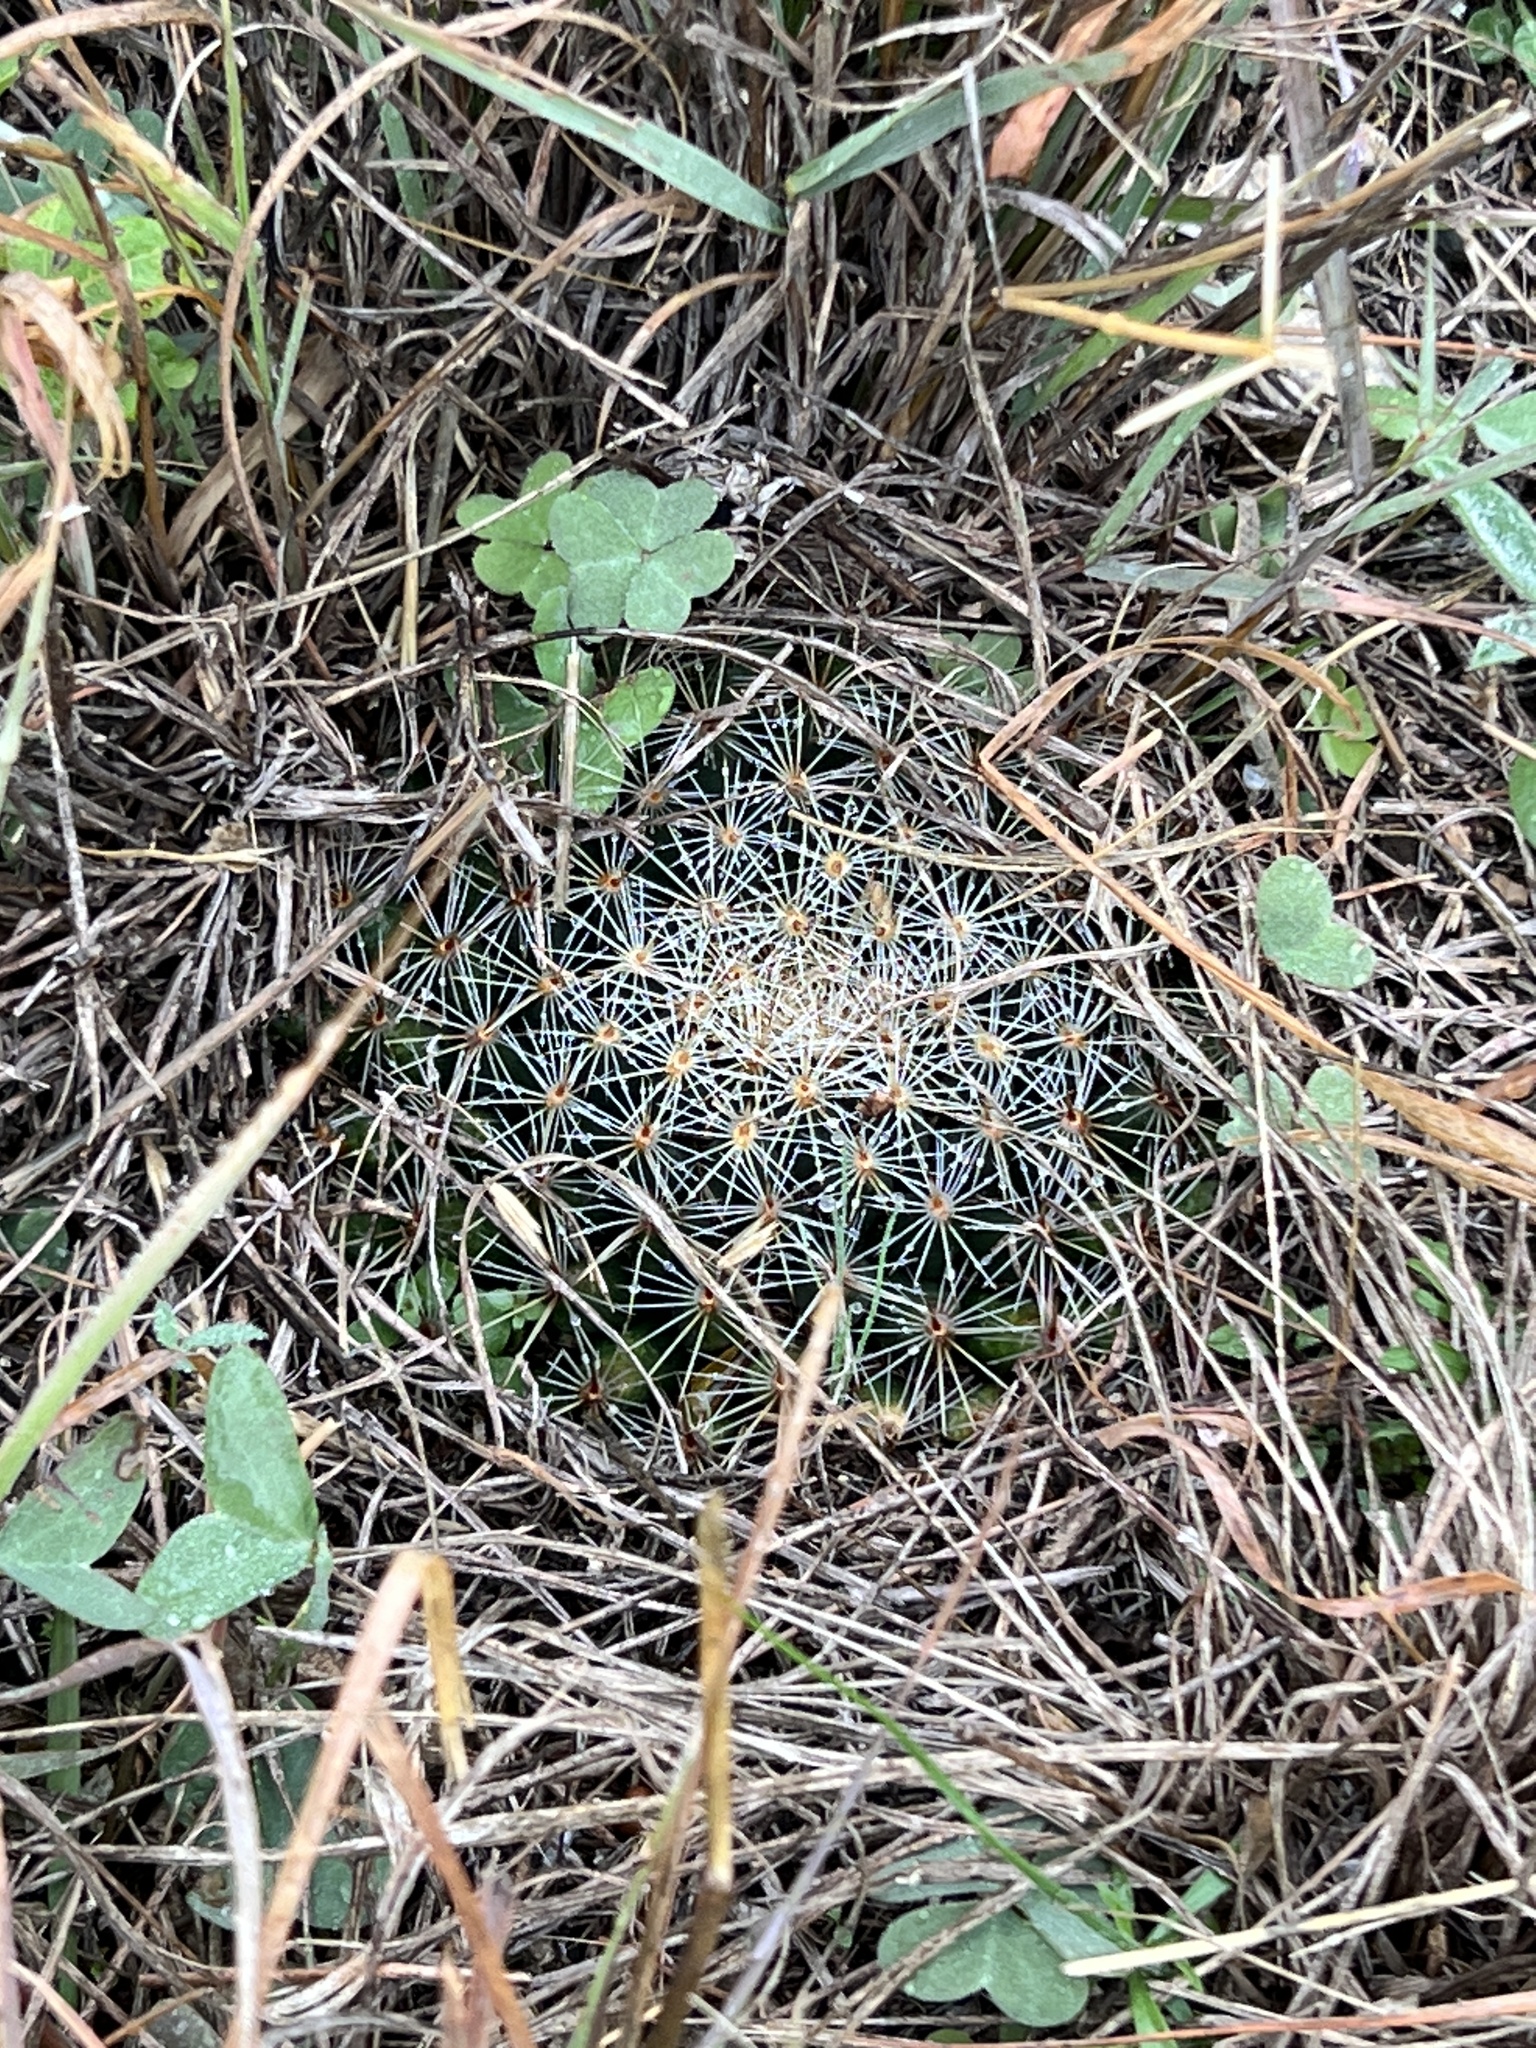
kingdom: Plantae
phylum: Tracheophyta
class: Magnoliopsida
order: Caryophyllales
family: Cactaceae
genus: Mammillaria
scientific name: Mammillaria heyderi
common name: Little nipple cactus
